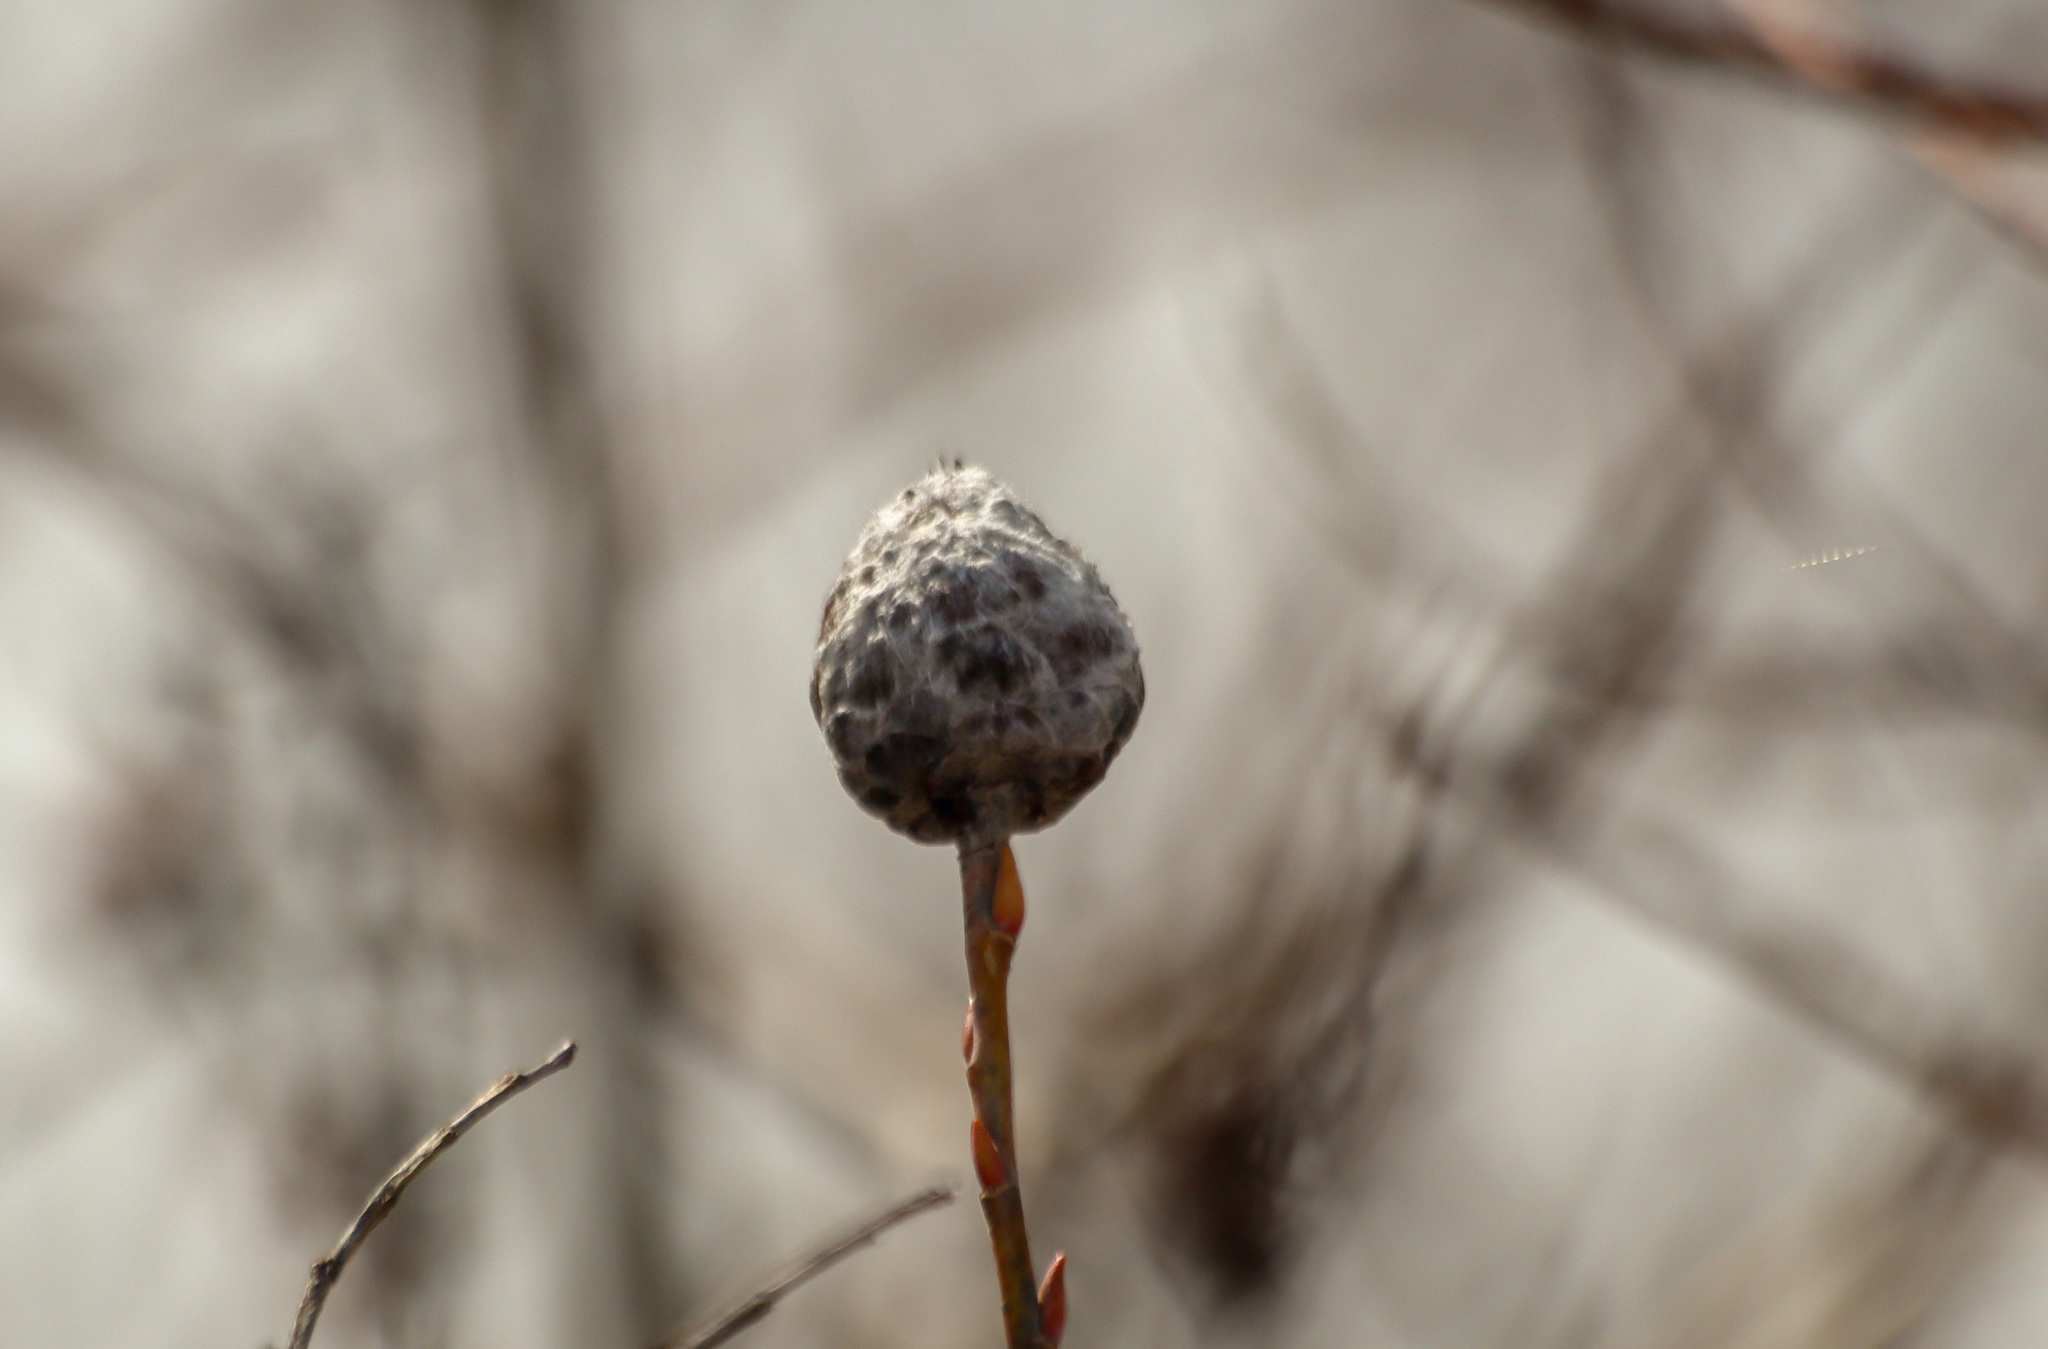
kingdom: Animalia
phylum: Arthropoda
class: Insecta
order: Diptera
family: Cecidomyiidae
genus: Rabdophaga
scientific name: Rabdophaga strobiloides
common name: Willow pinecone gall midge
